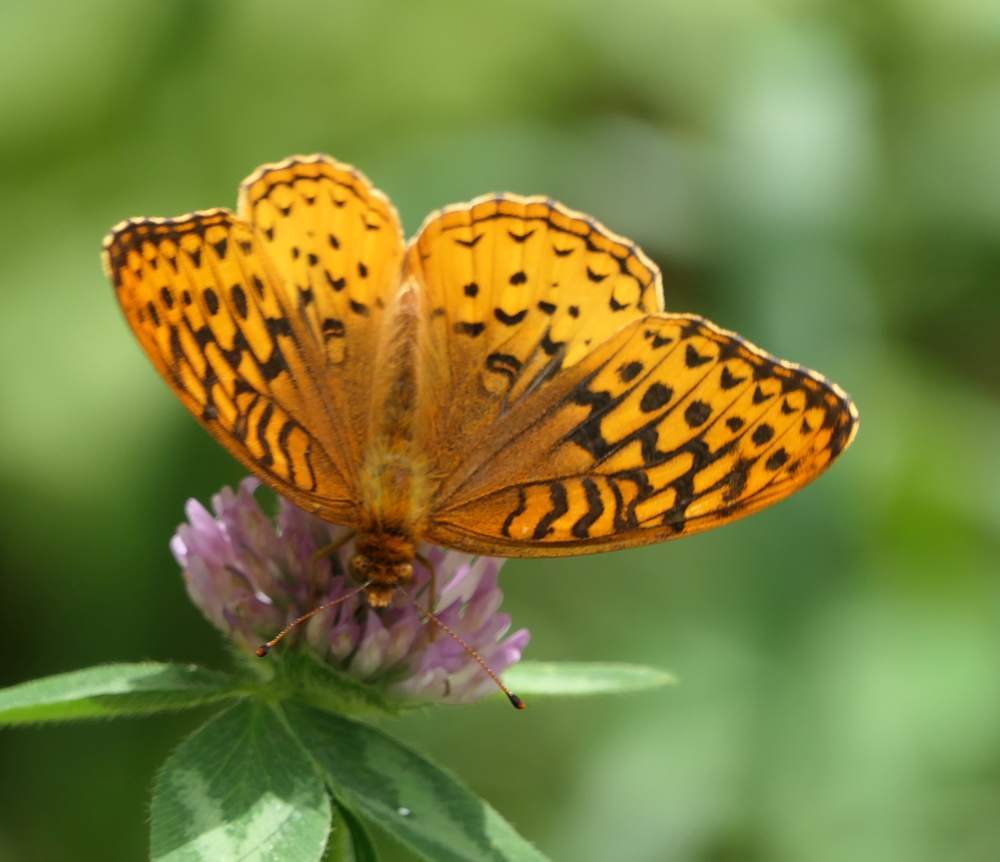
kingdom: Animalia
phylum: Arthropoda
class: Insecta
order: Lepidoptera
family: Nymphalidae
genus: Speyeria
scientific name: Speyeria cybele
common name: Great spangled fritillary
